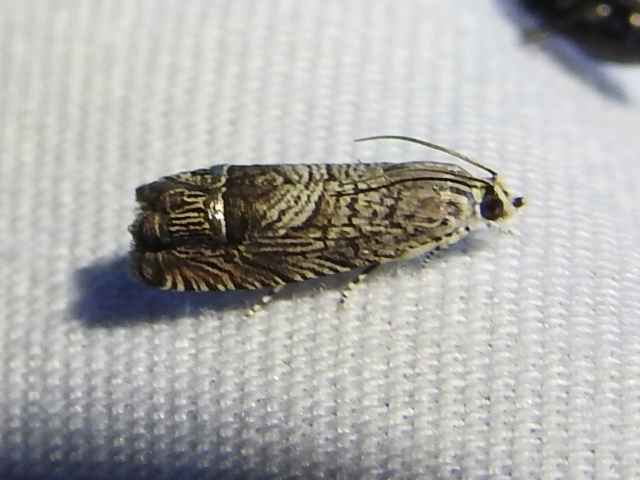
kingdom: Animalia
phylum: Arthropoda
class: Insecta
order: Lepidoptera
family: Tortricidae
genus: Ofatulena
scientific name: Ofatulena duodecemstriata
